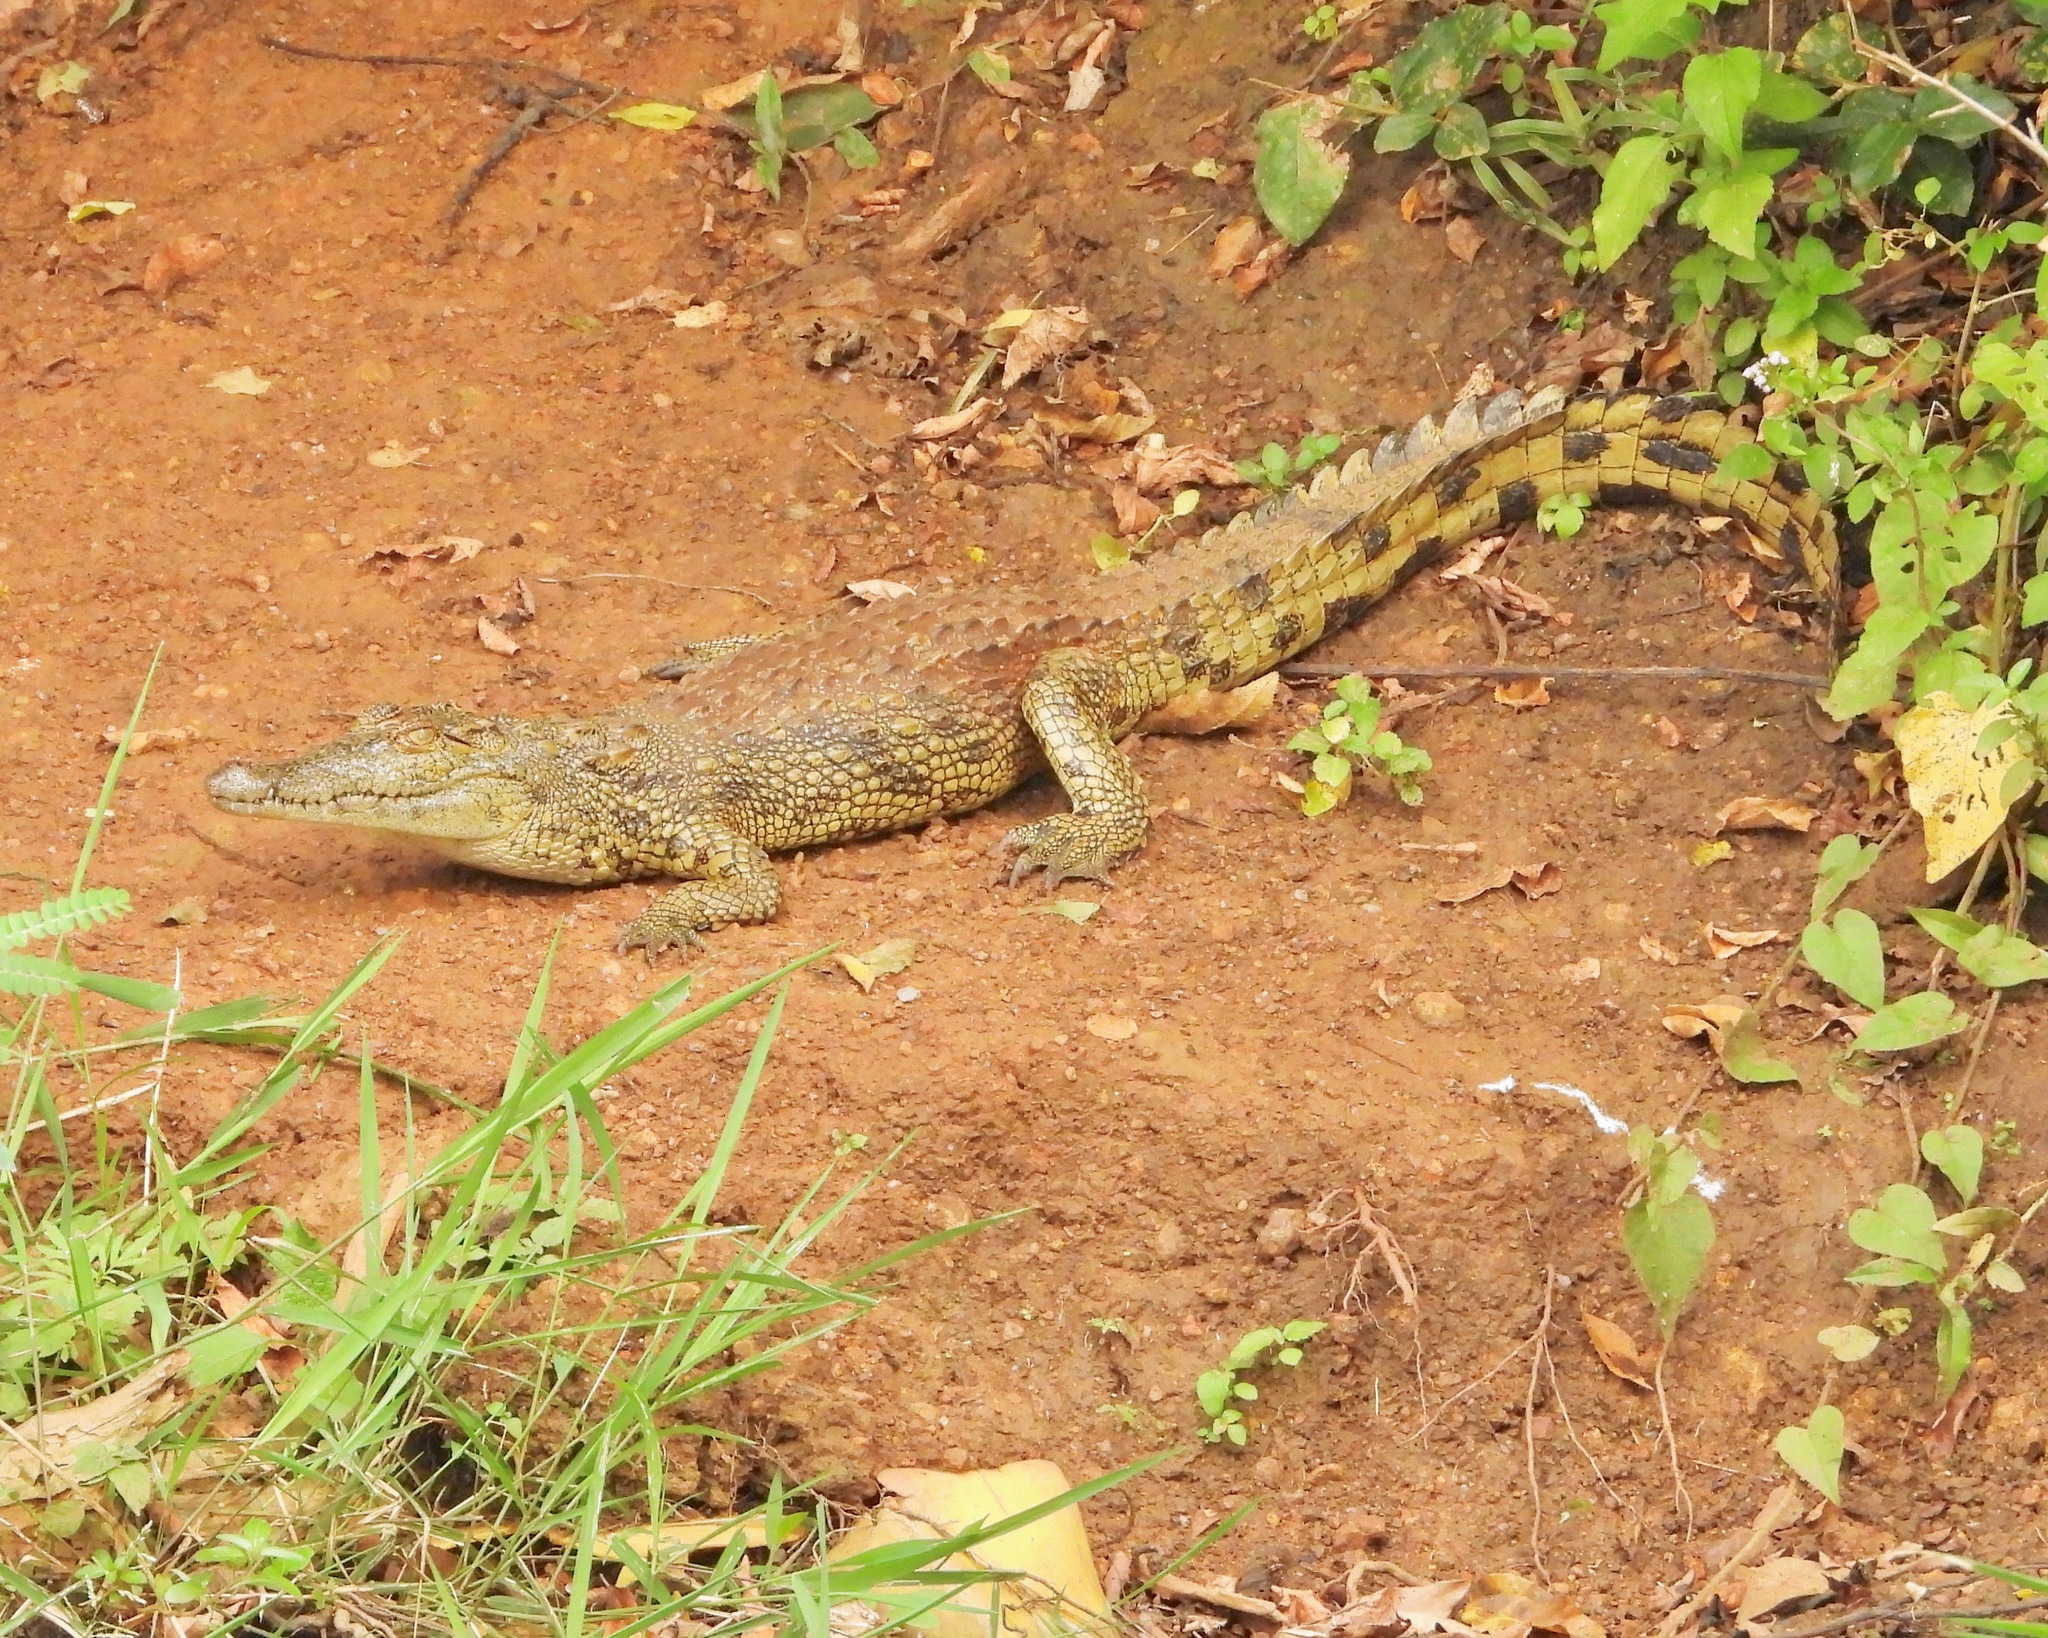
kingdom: Animalia
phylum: Chordata
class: Crocodylia
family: Crocodylidae
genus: Crocodylus
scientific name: Crocodylus niloticus
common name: Nile crocodile
